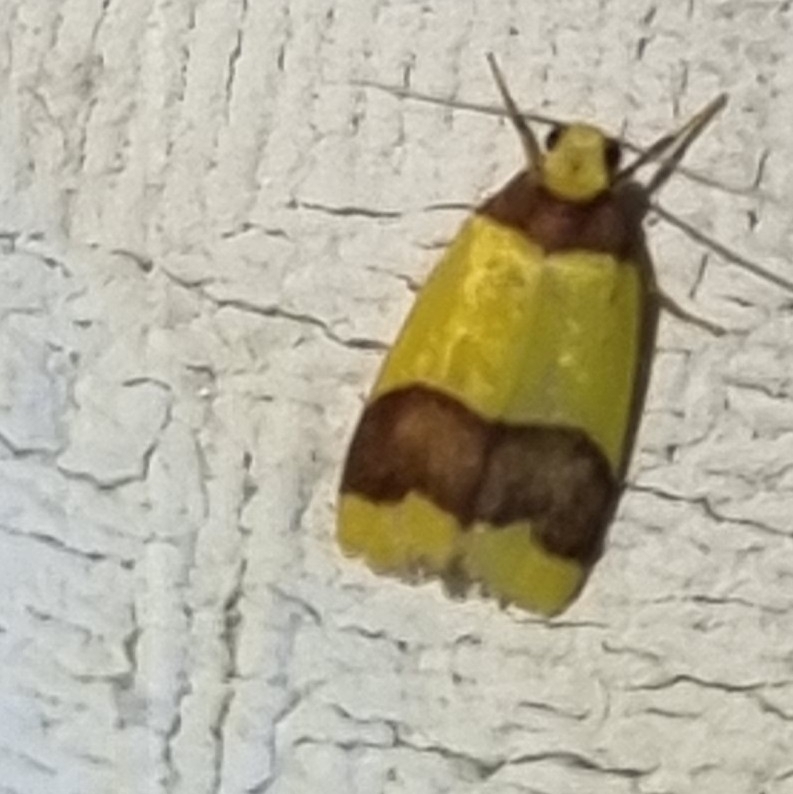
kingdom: Animalia
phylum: Arthropoda
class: Insecta
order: Lepidoptera
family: Erebidae
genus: Heterallactis
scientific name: Heterallactis microchrysa
